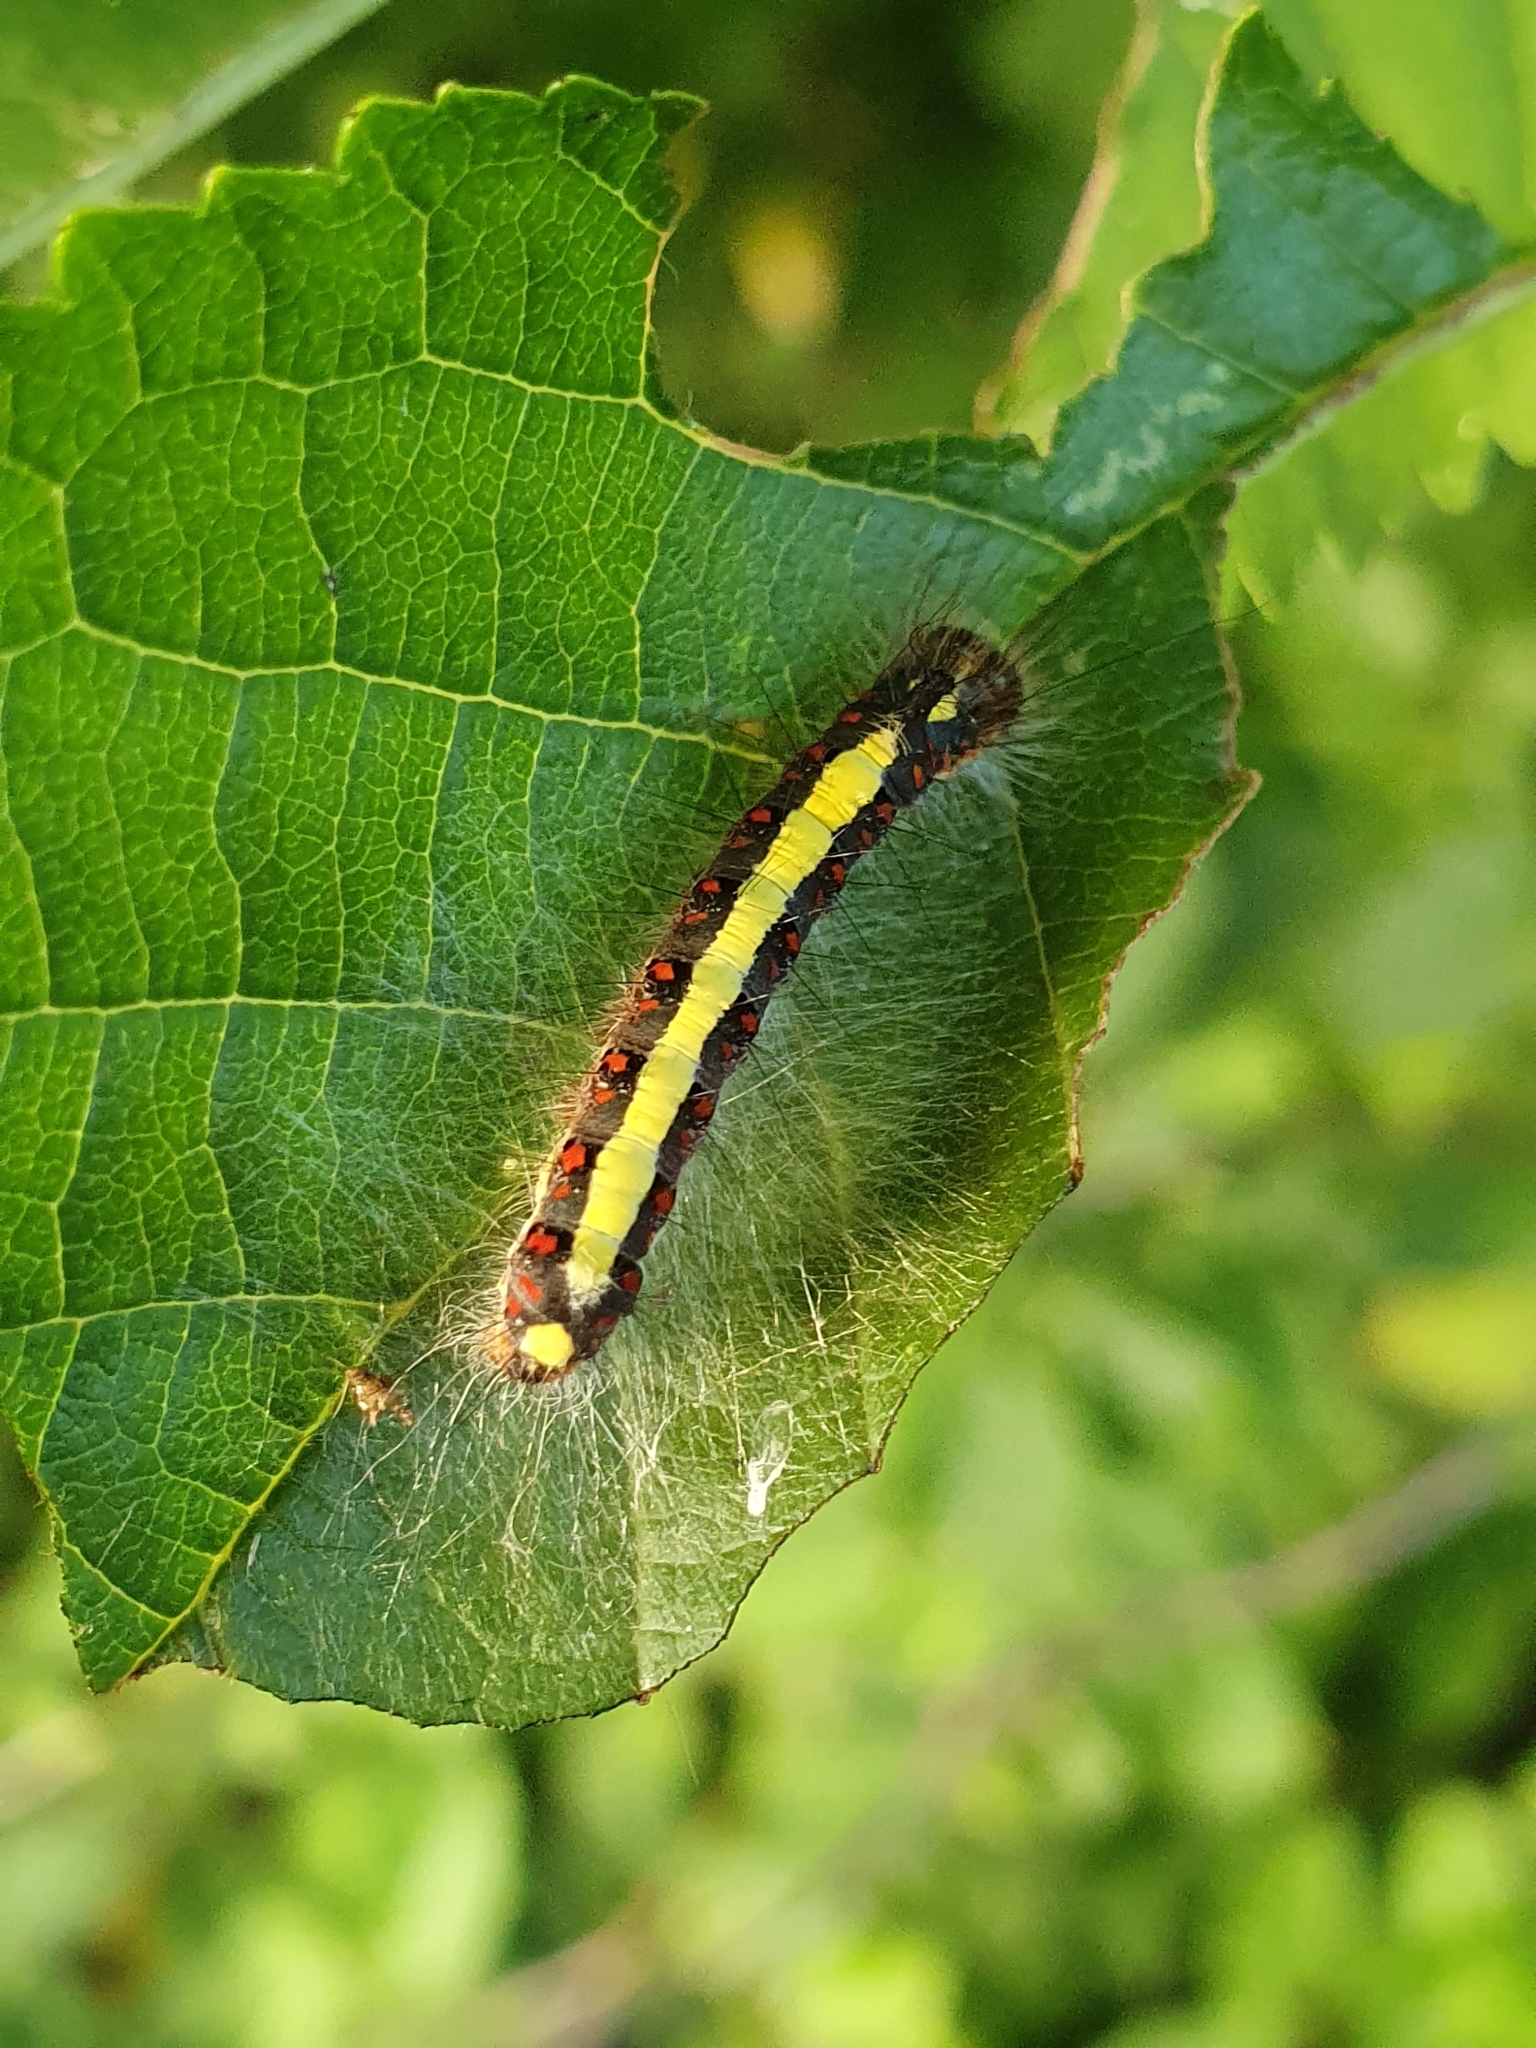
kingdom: Animalia
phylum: Arthropoda
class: Insecta
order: Lepidoptera
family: Noctuidae
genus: Acronicta
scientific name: Acronicta psi
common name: Grey dagger
